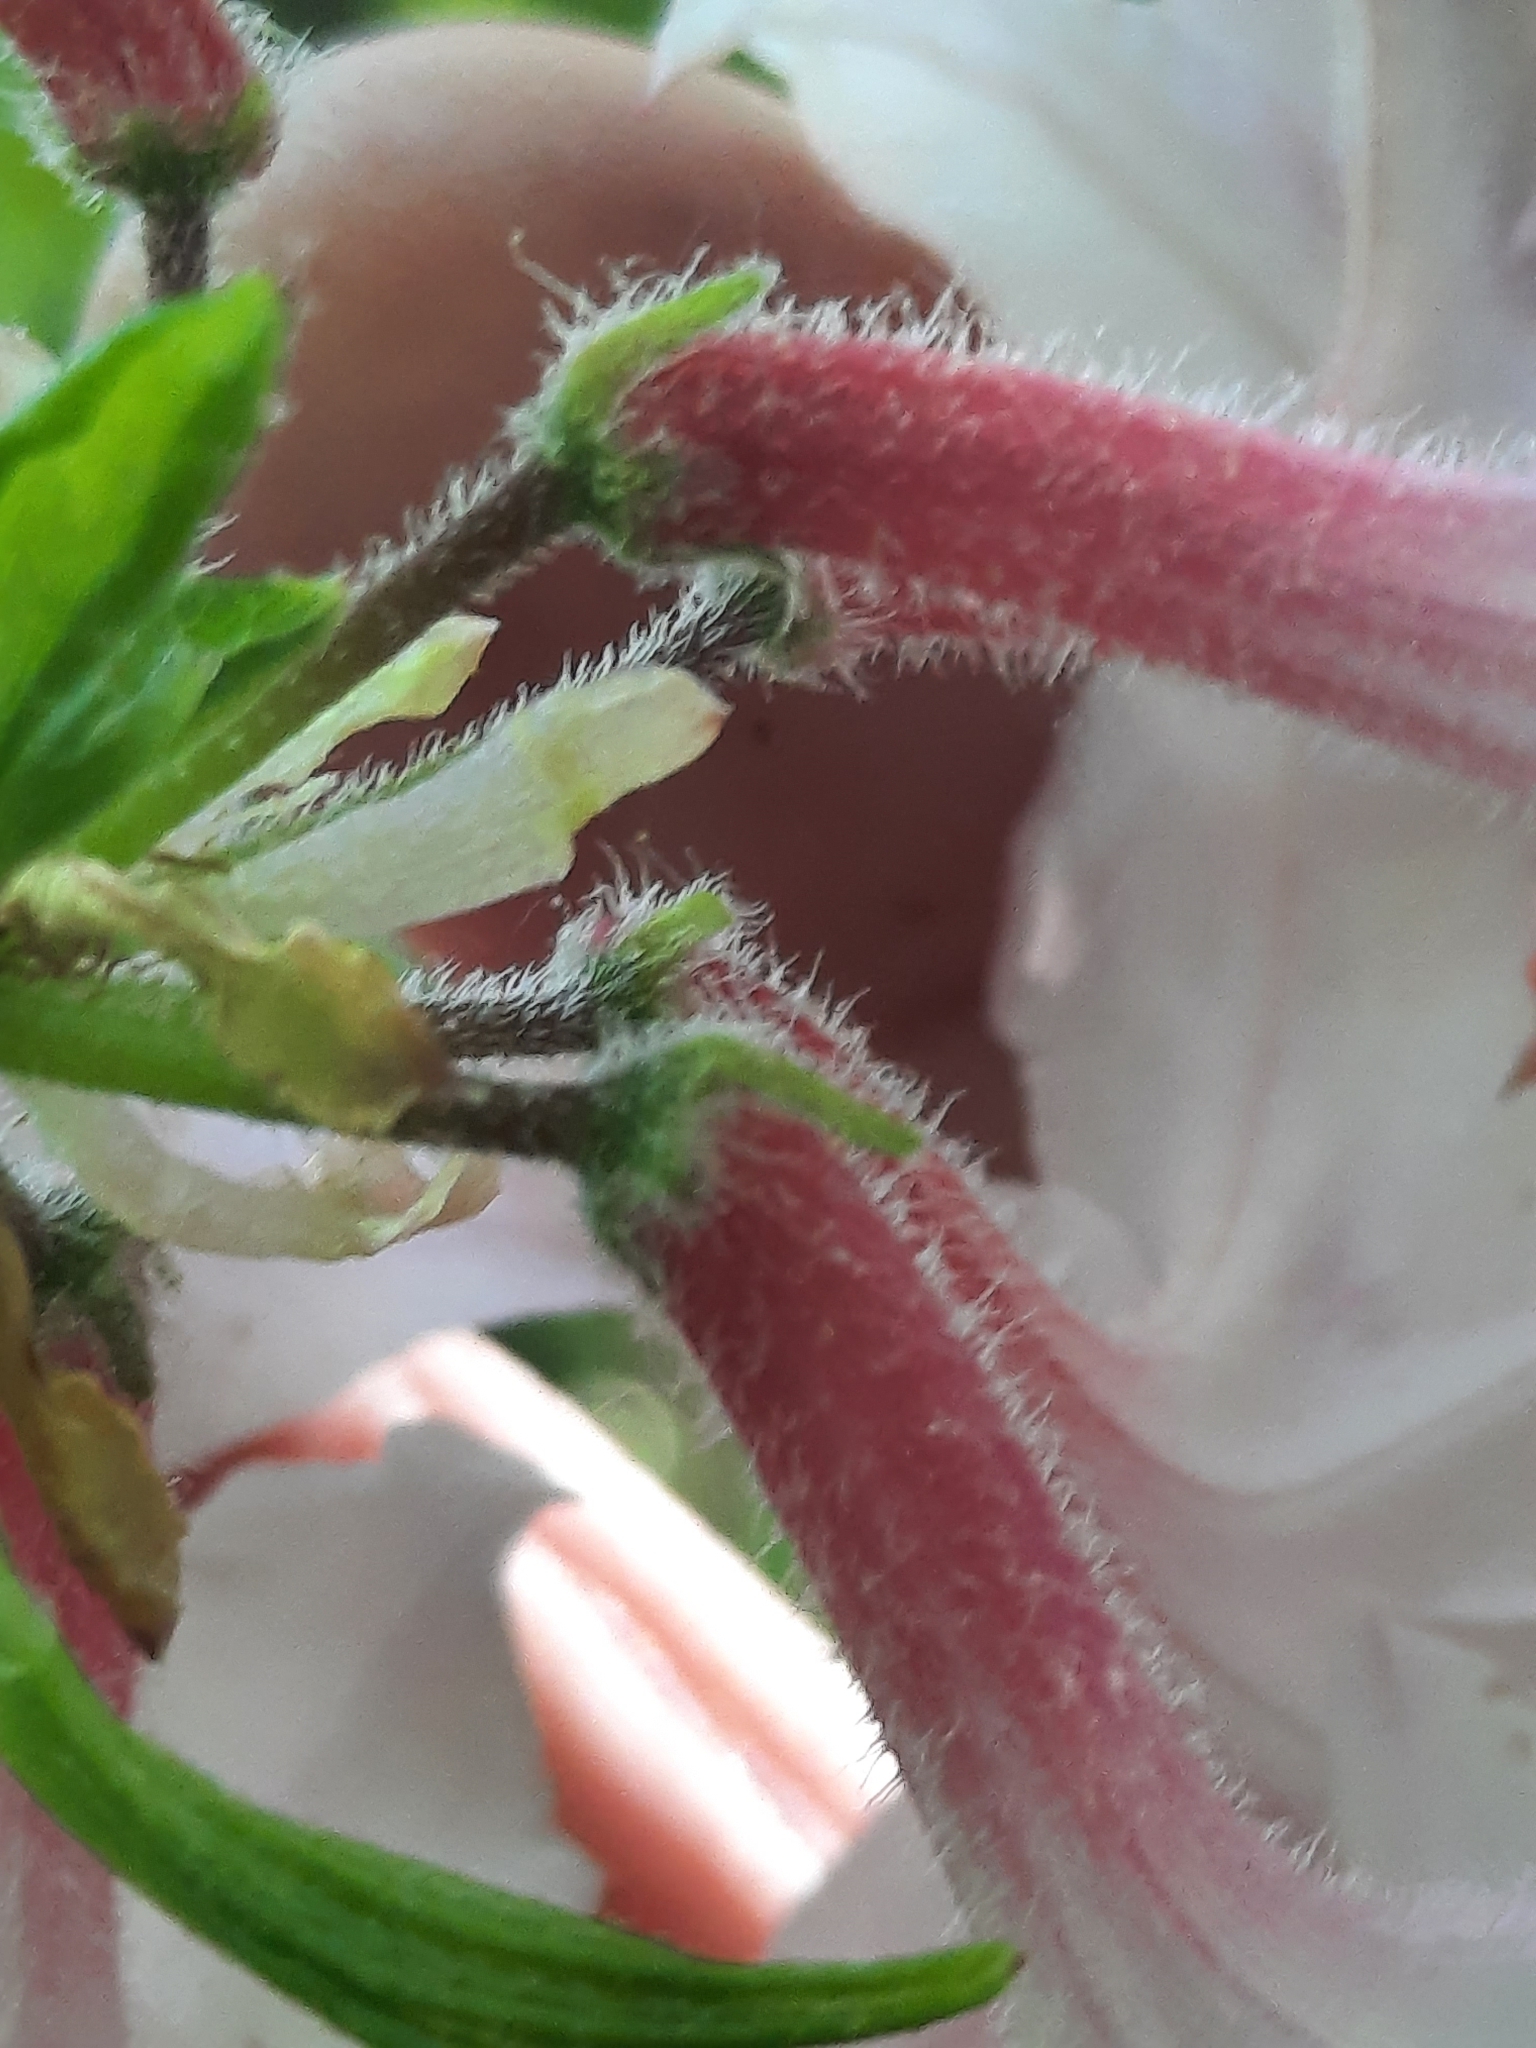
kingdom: Plantae
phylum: Tracheophyta
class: Magnoliopsida
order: Ericales
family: Ericaceae
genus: Rhododendron
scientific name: Rhododendron periclymenoides
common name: Election-pink
